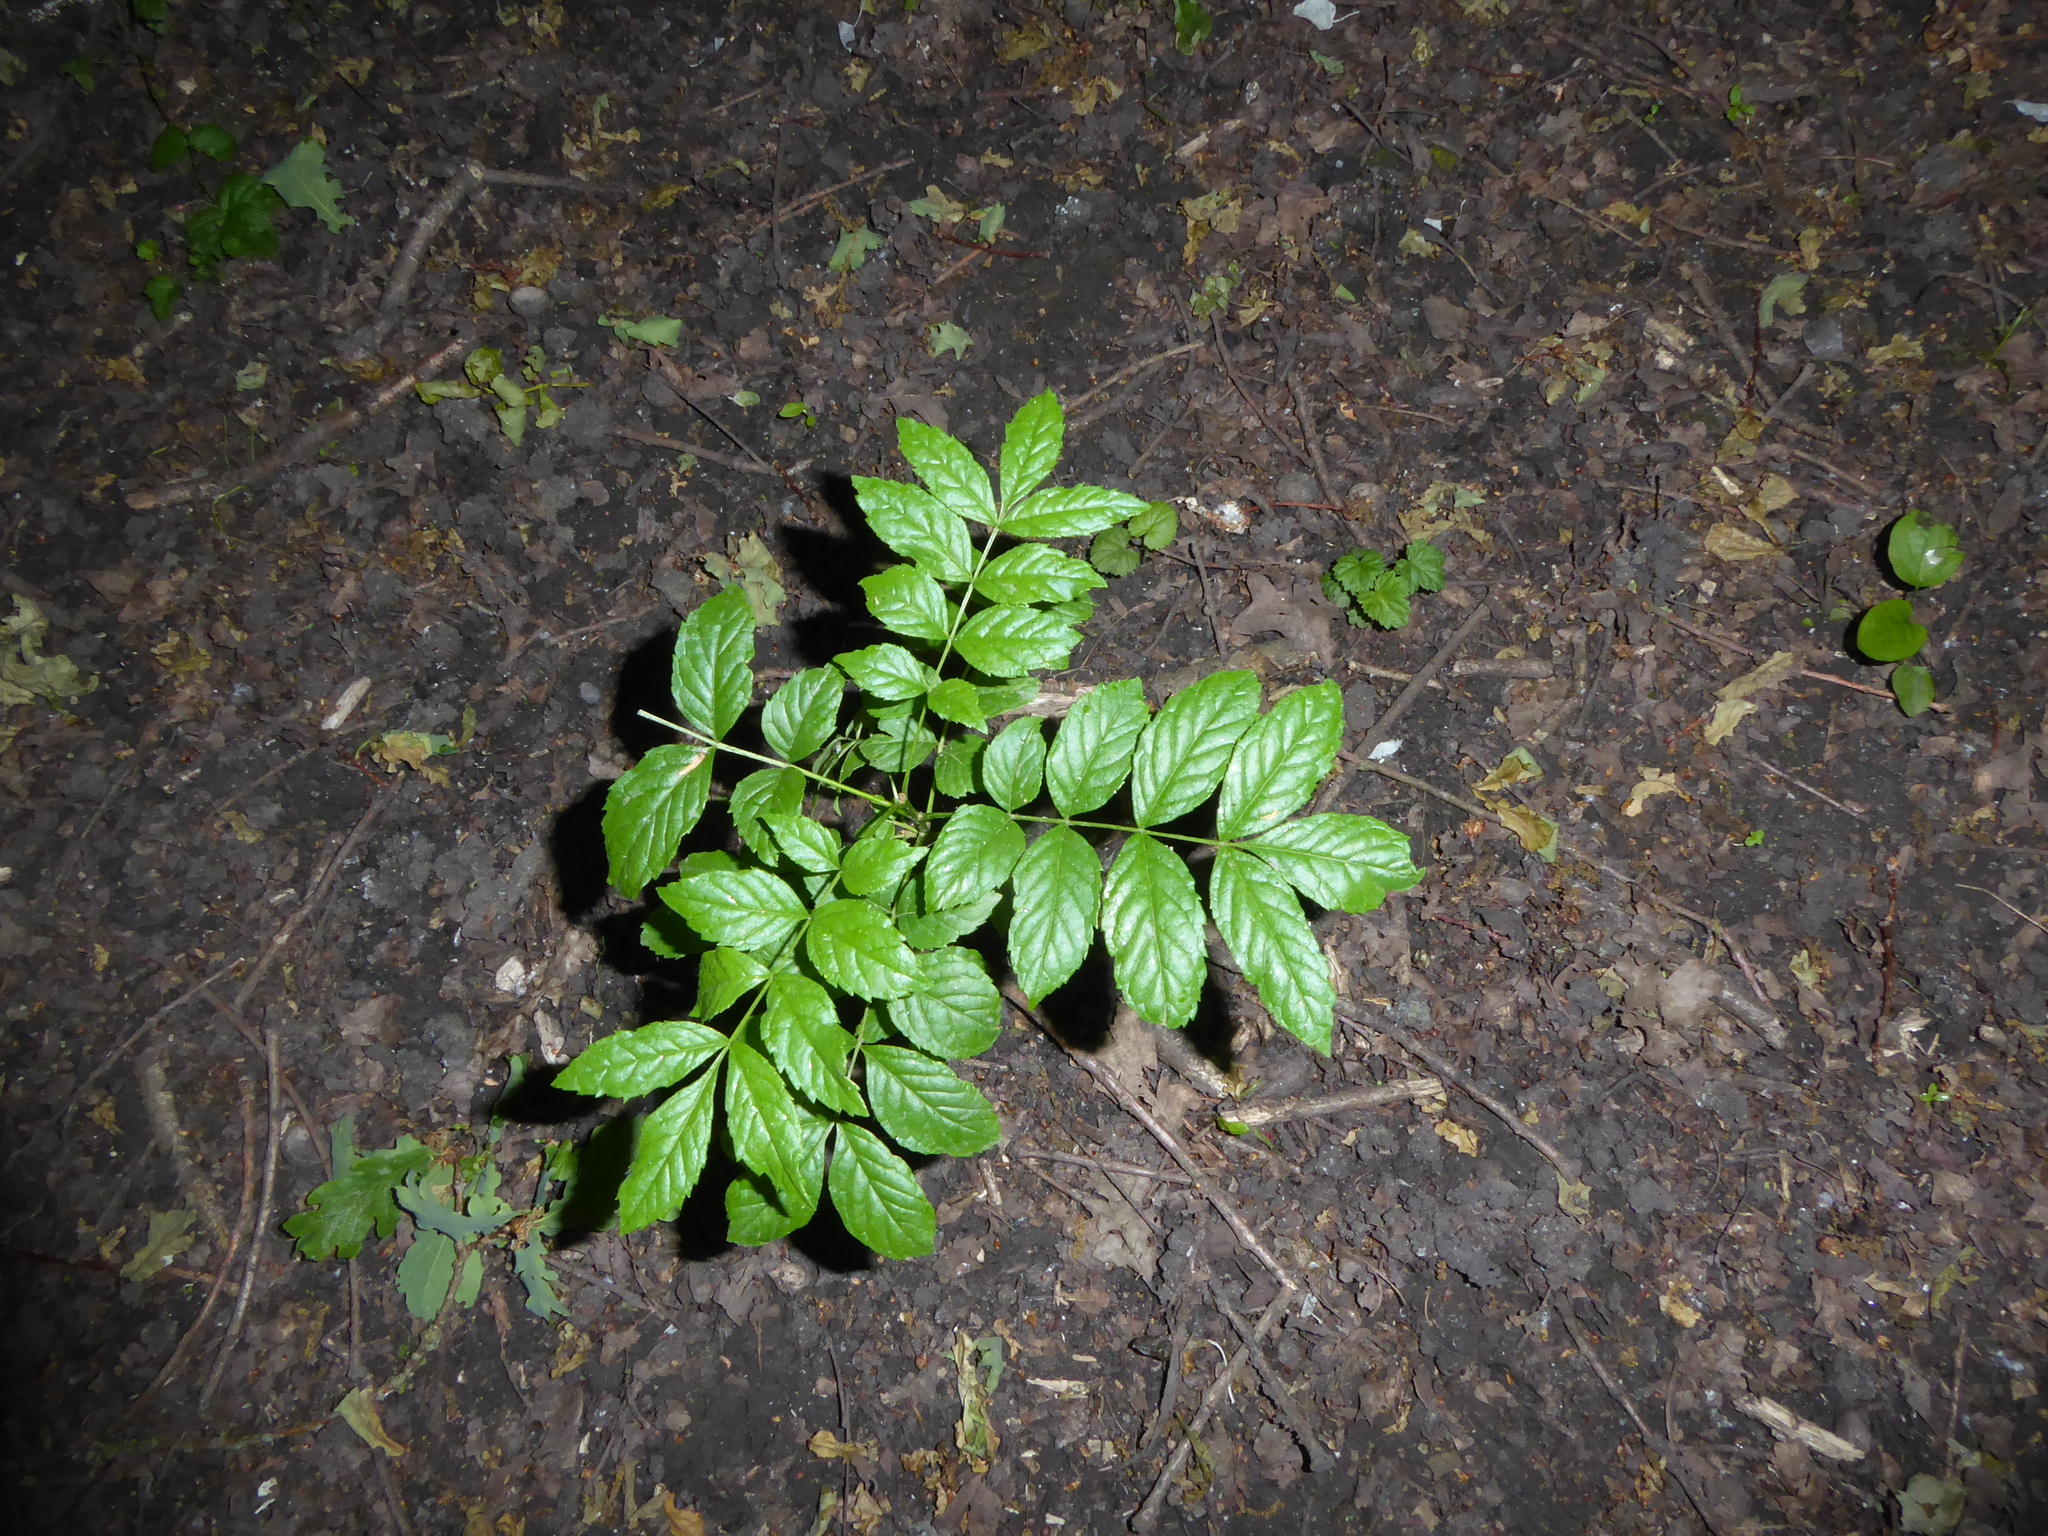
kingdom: Plantae
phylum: Tracheophyta
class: Magnoliopsida
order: Lamiales
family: Oleaceae
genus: Fraxinus
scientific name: Fraxinus excelsior
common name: European ash
